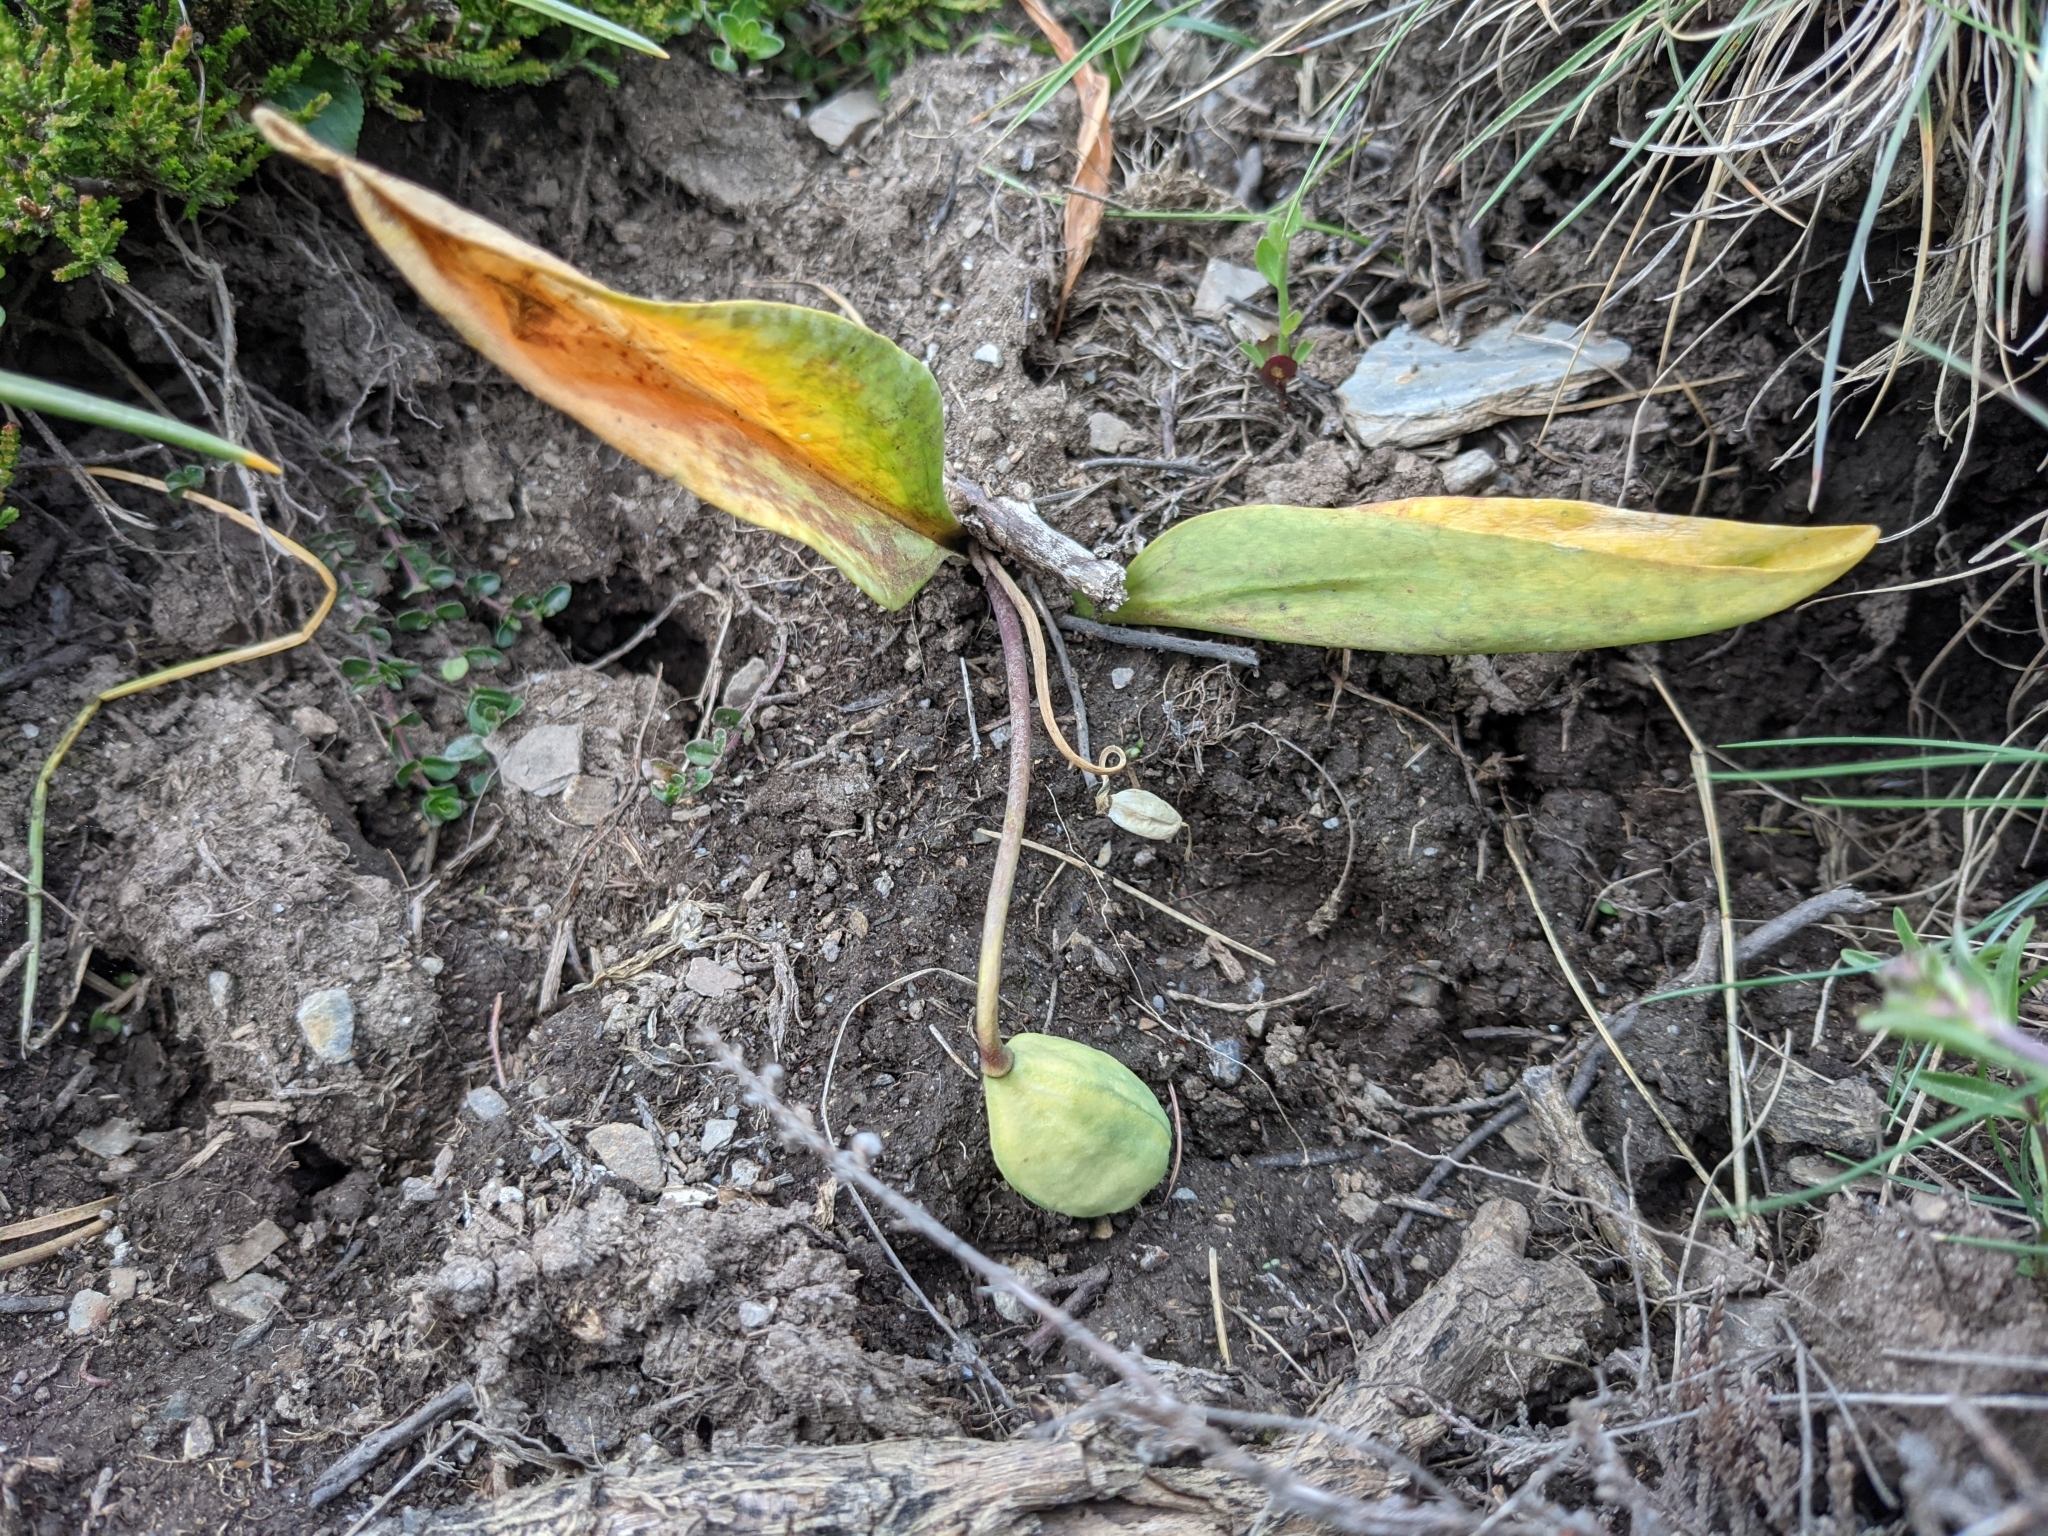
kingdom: Plantae
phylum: Tracheophyta
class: Liliopsida
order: Liliales
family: Liliaceae
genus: Erythronium
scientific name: Erythronium dens-canis
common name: Dog's-tooth-violet
